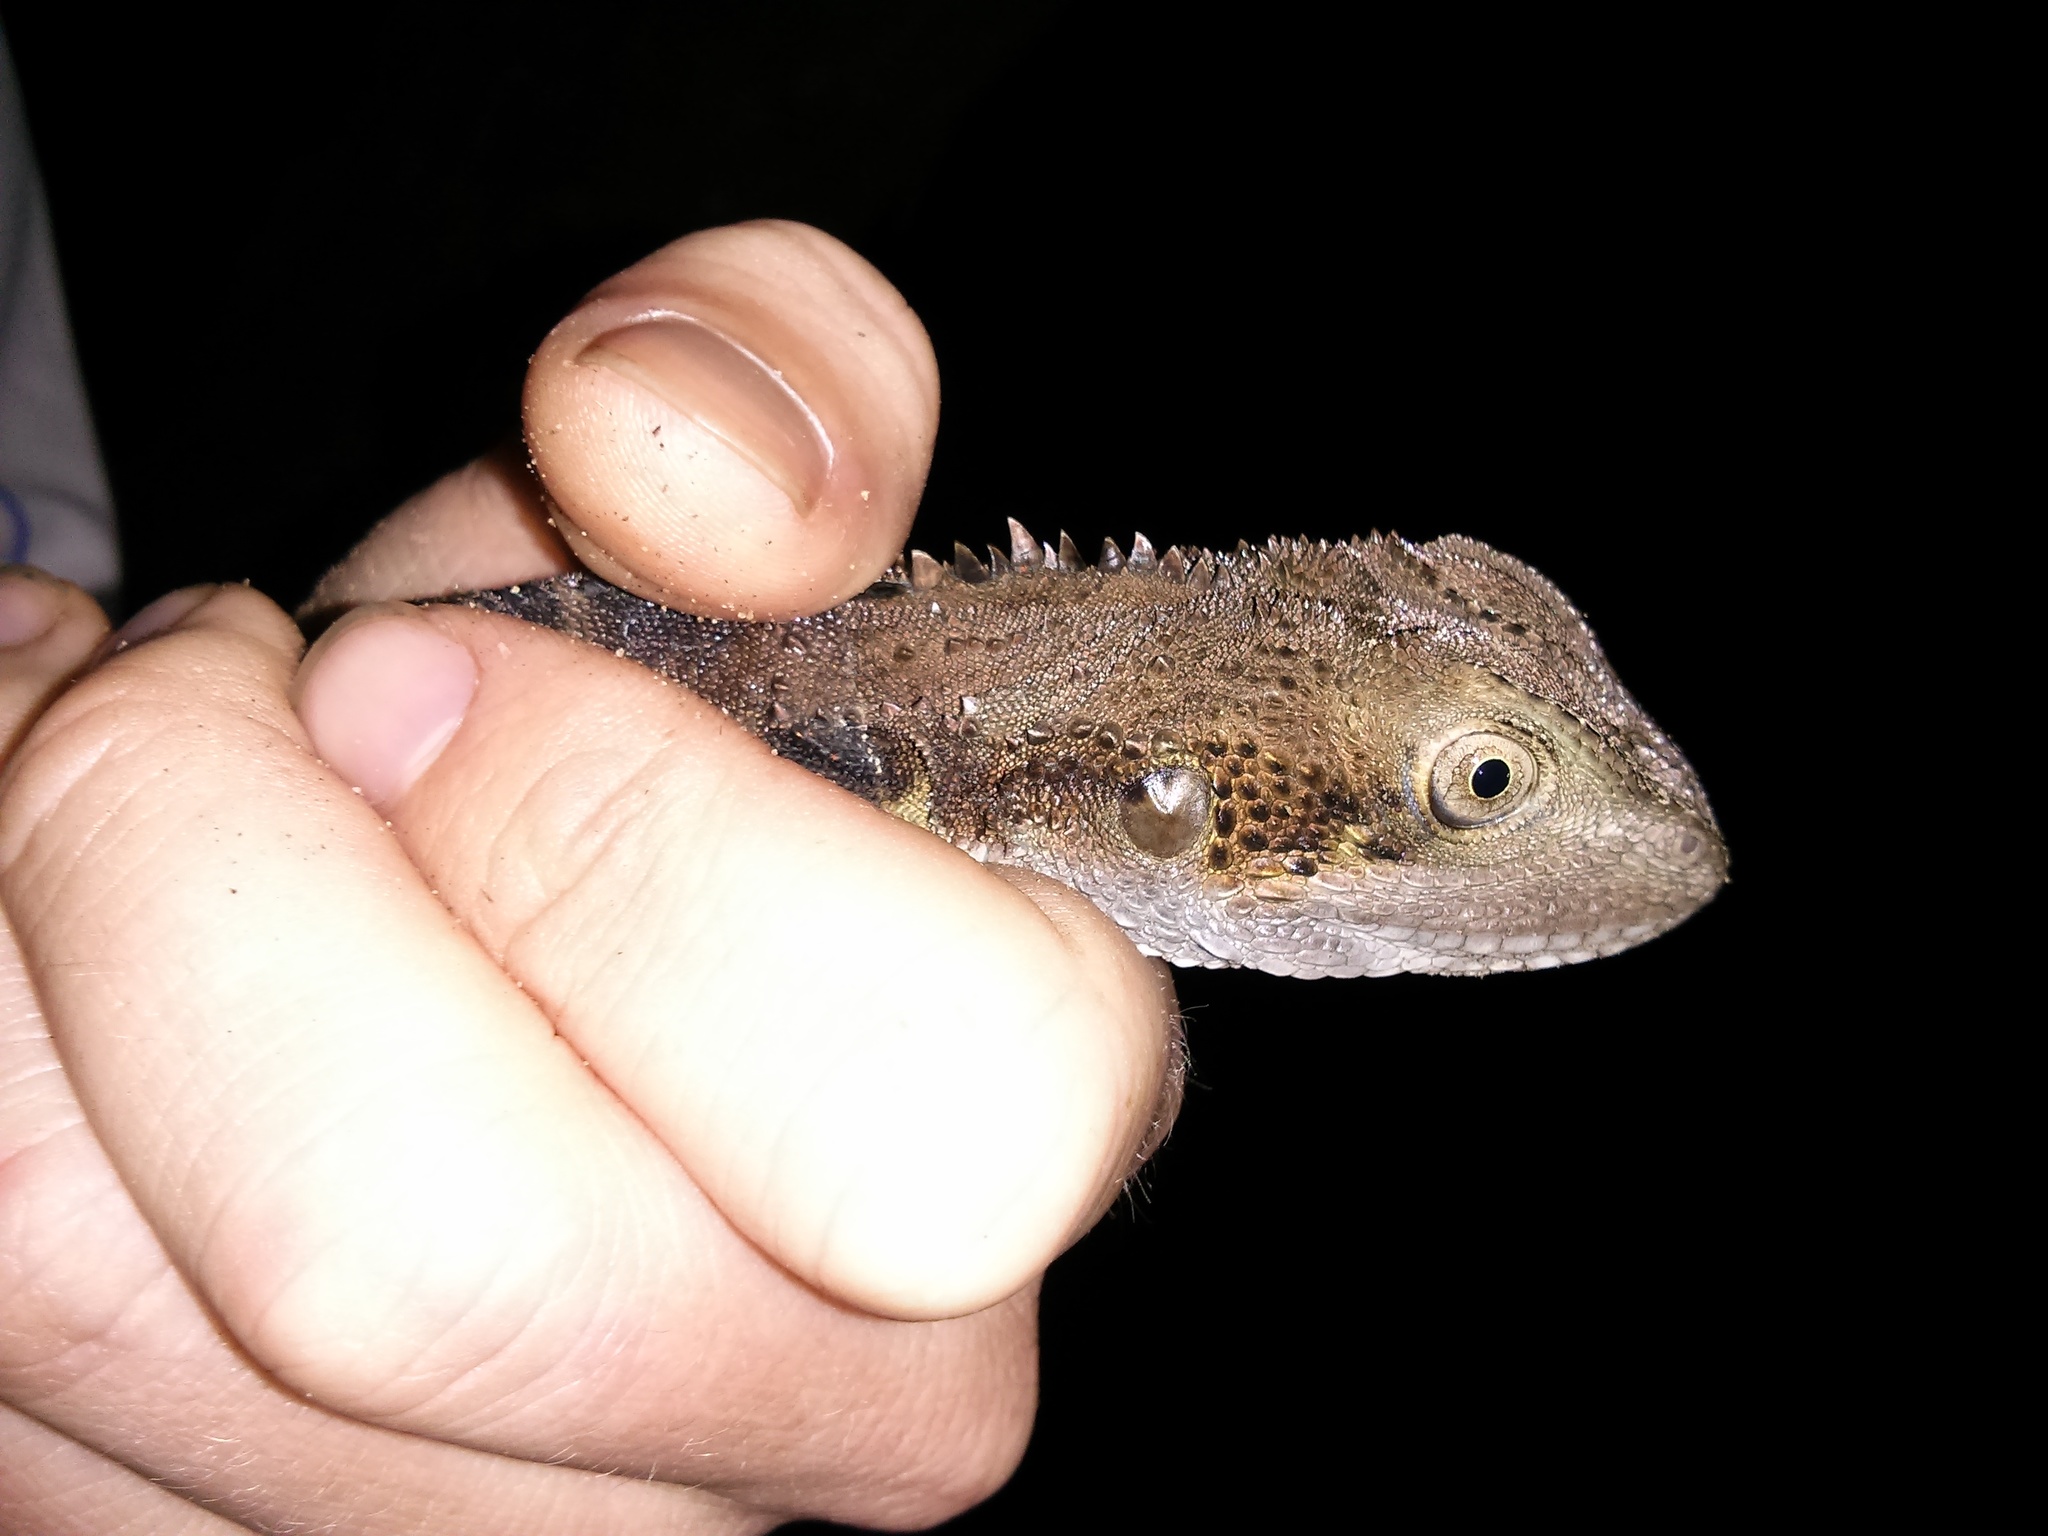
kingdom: Animalia
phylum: Chordata
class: Squamata
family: Agamidae
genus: Intellagama
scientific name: Intellagama lesueurii
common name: Eastern water dragon
